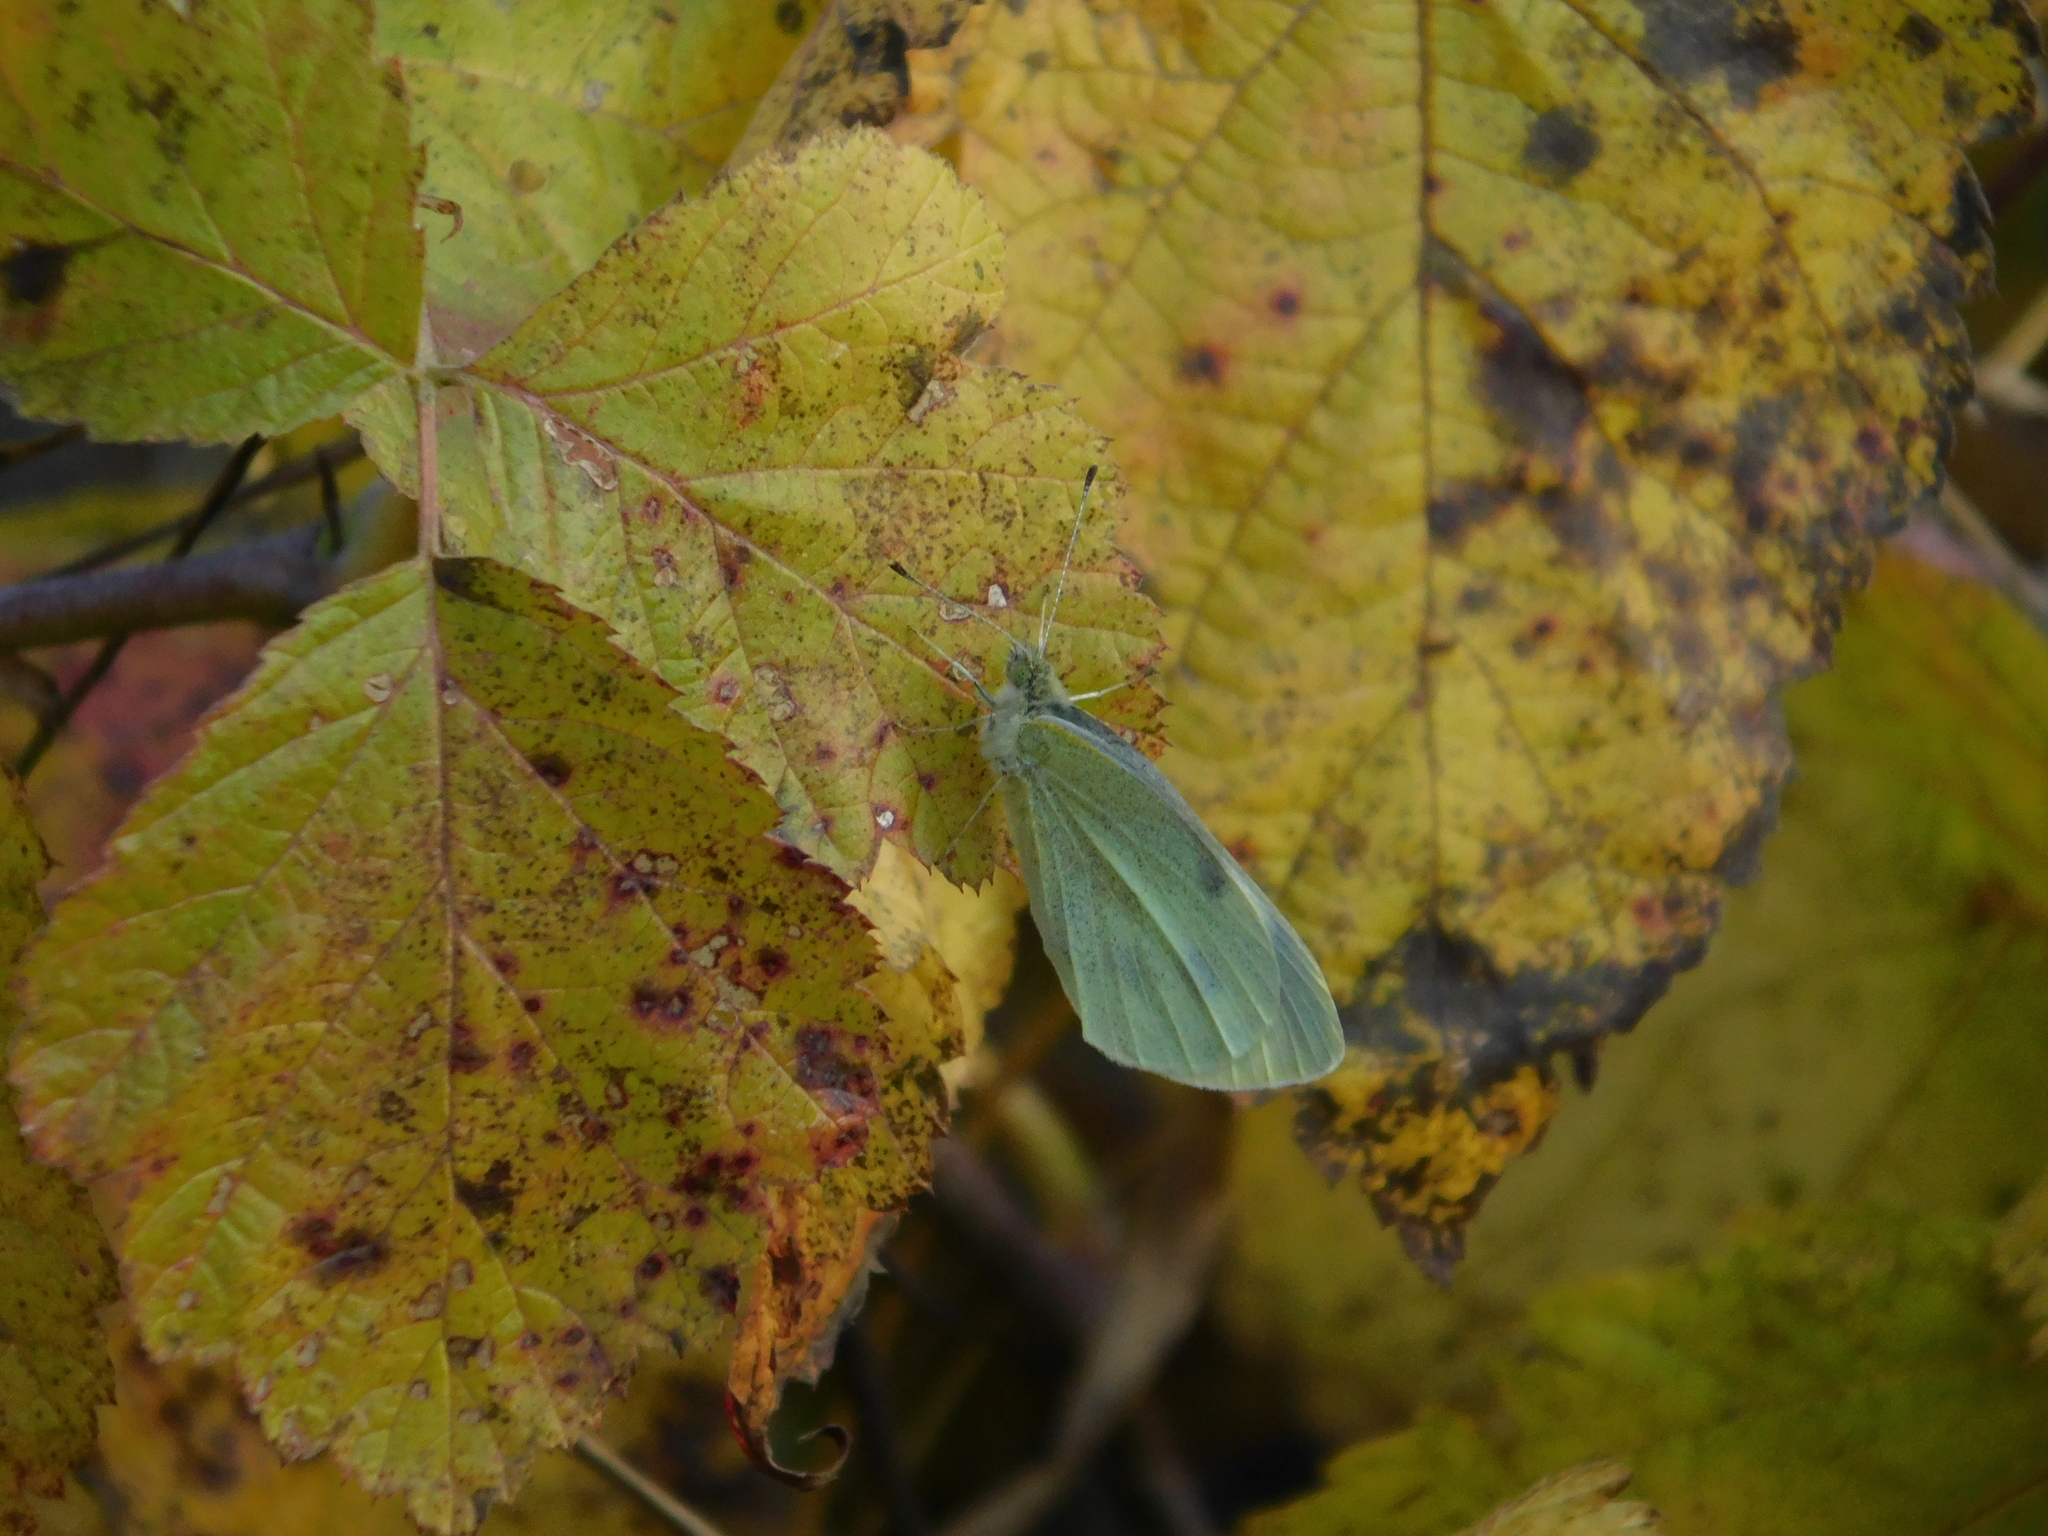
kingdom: Animalia
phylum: Arthropoda
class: Insecta
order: Lepidoptera
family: Pieridae
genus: Pieris
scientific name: Pieris rapae
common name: Small white
